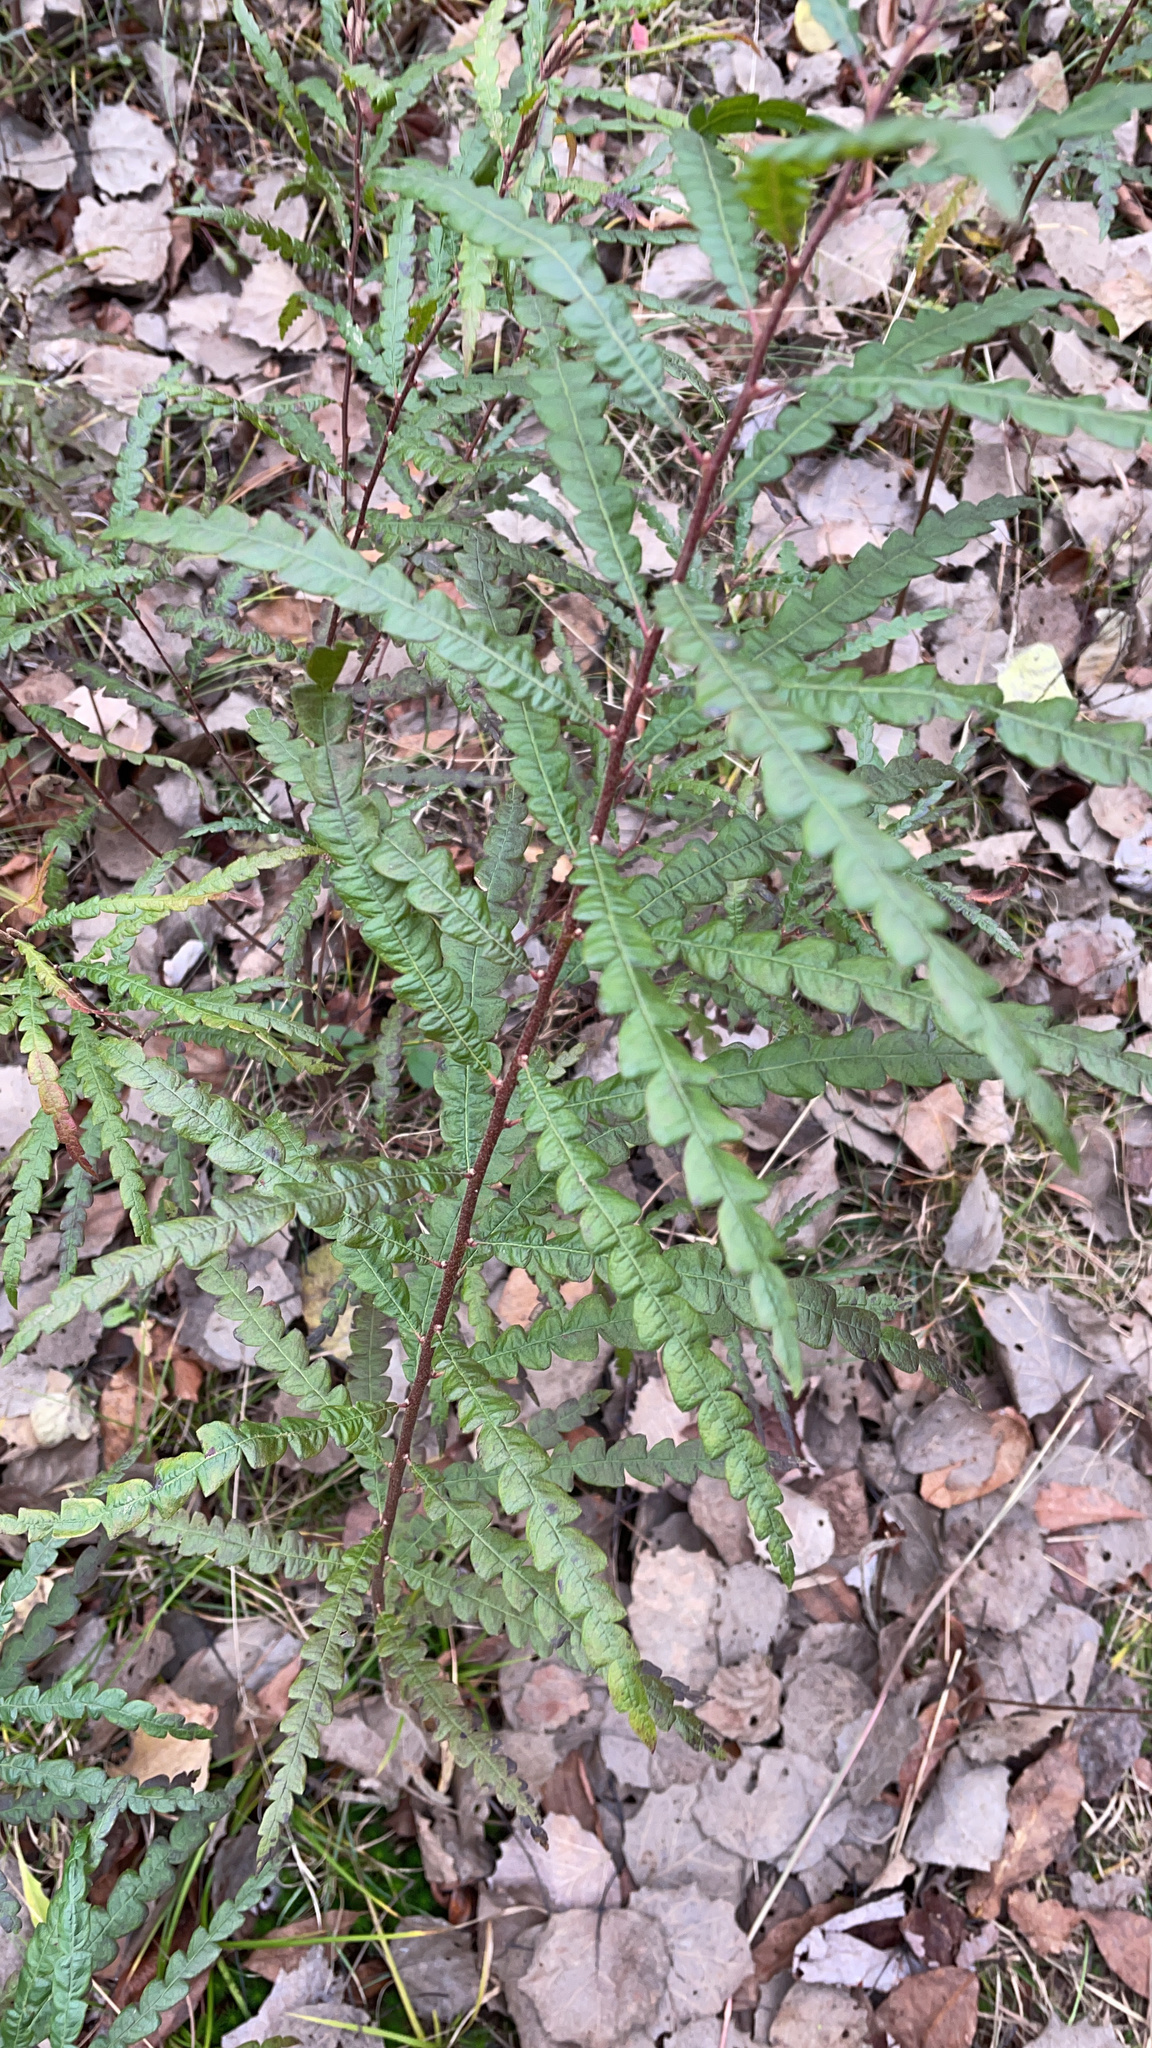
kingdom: Plantae
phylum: Tracheophyta
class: Magnoliopsida
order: Fagales
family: Myricaceae
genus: Comptonia
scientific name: Comptonia peregrina
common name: Sweet-fern
